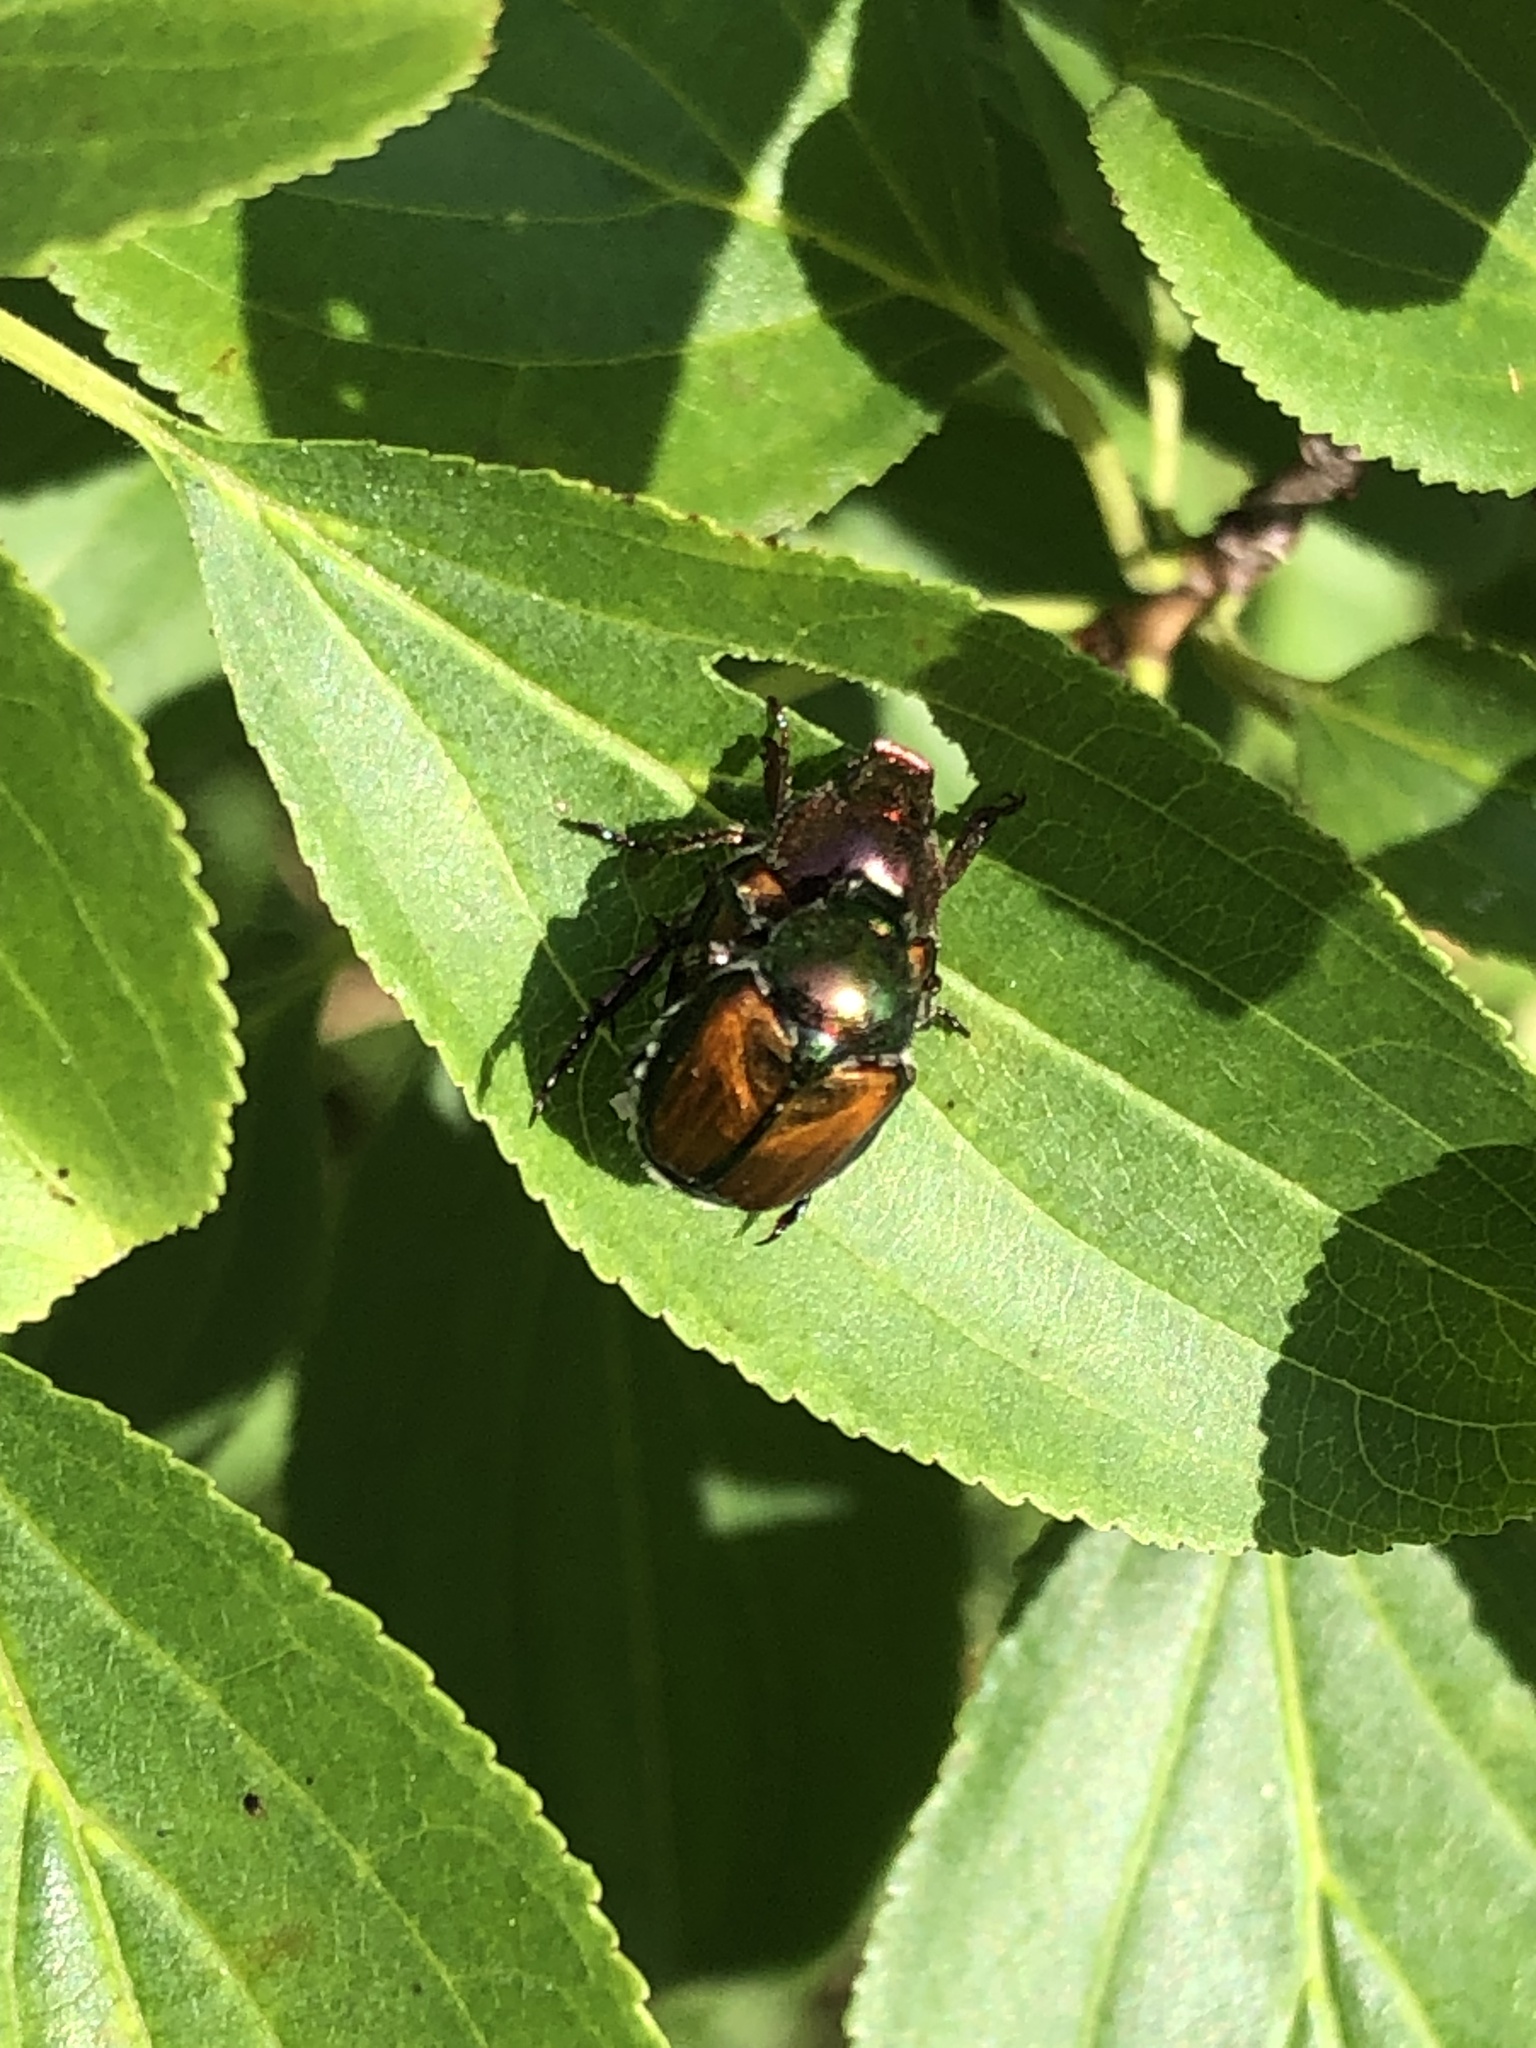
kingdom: Animalia
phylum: Arthropoda
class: Insecta
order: Coleoptera
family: Scarabaeidae
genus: Popillia
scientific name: Popillia japonica
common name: Japanese beetle
